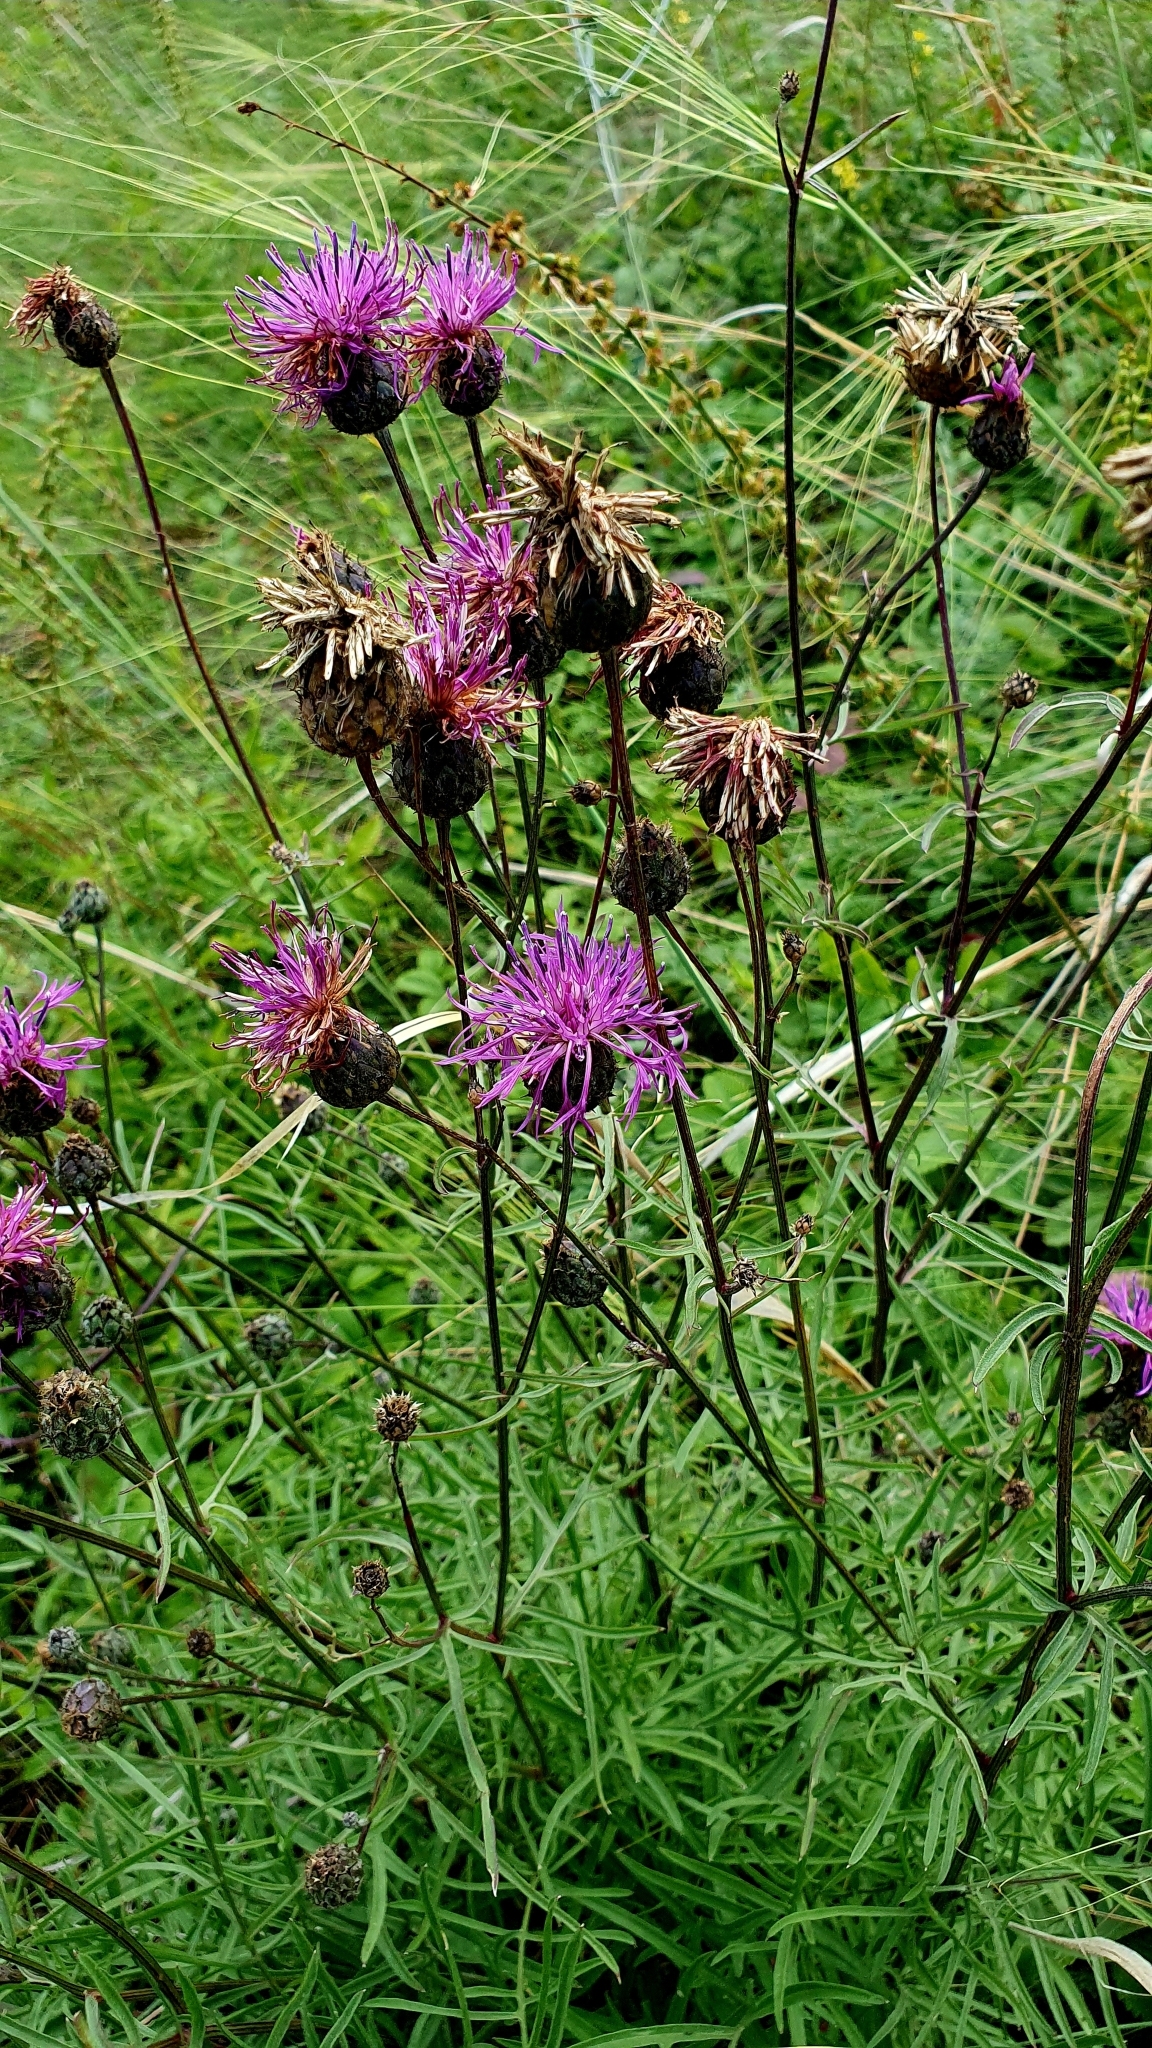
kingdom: Plantae
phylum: Tracheophyta
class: Magnoliopsida
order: Asterales
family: Asteraceae
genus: Centaurea
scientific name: Centaurea scabiosa
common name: Greater knapweed
